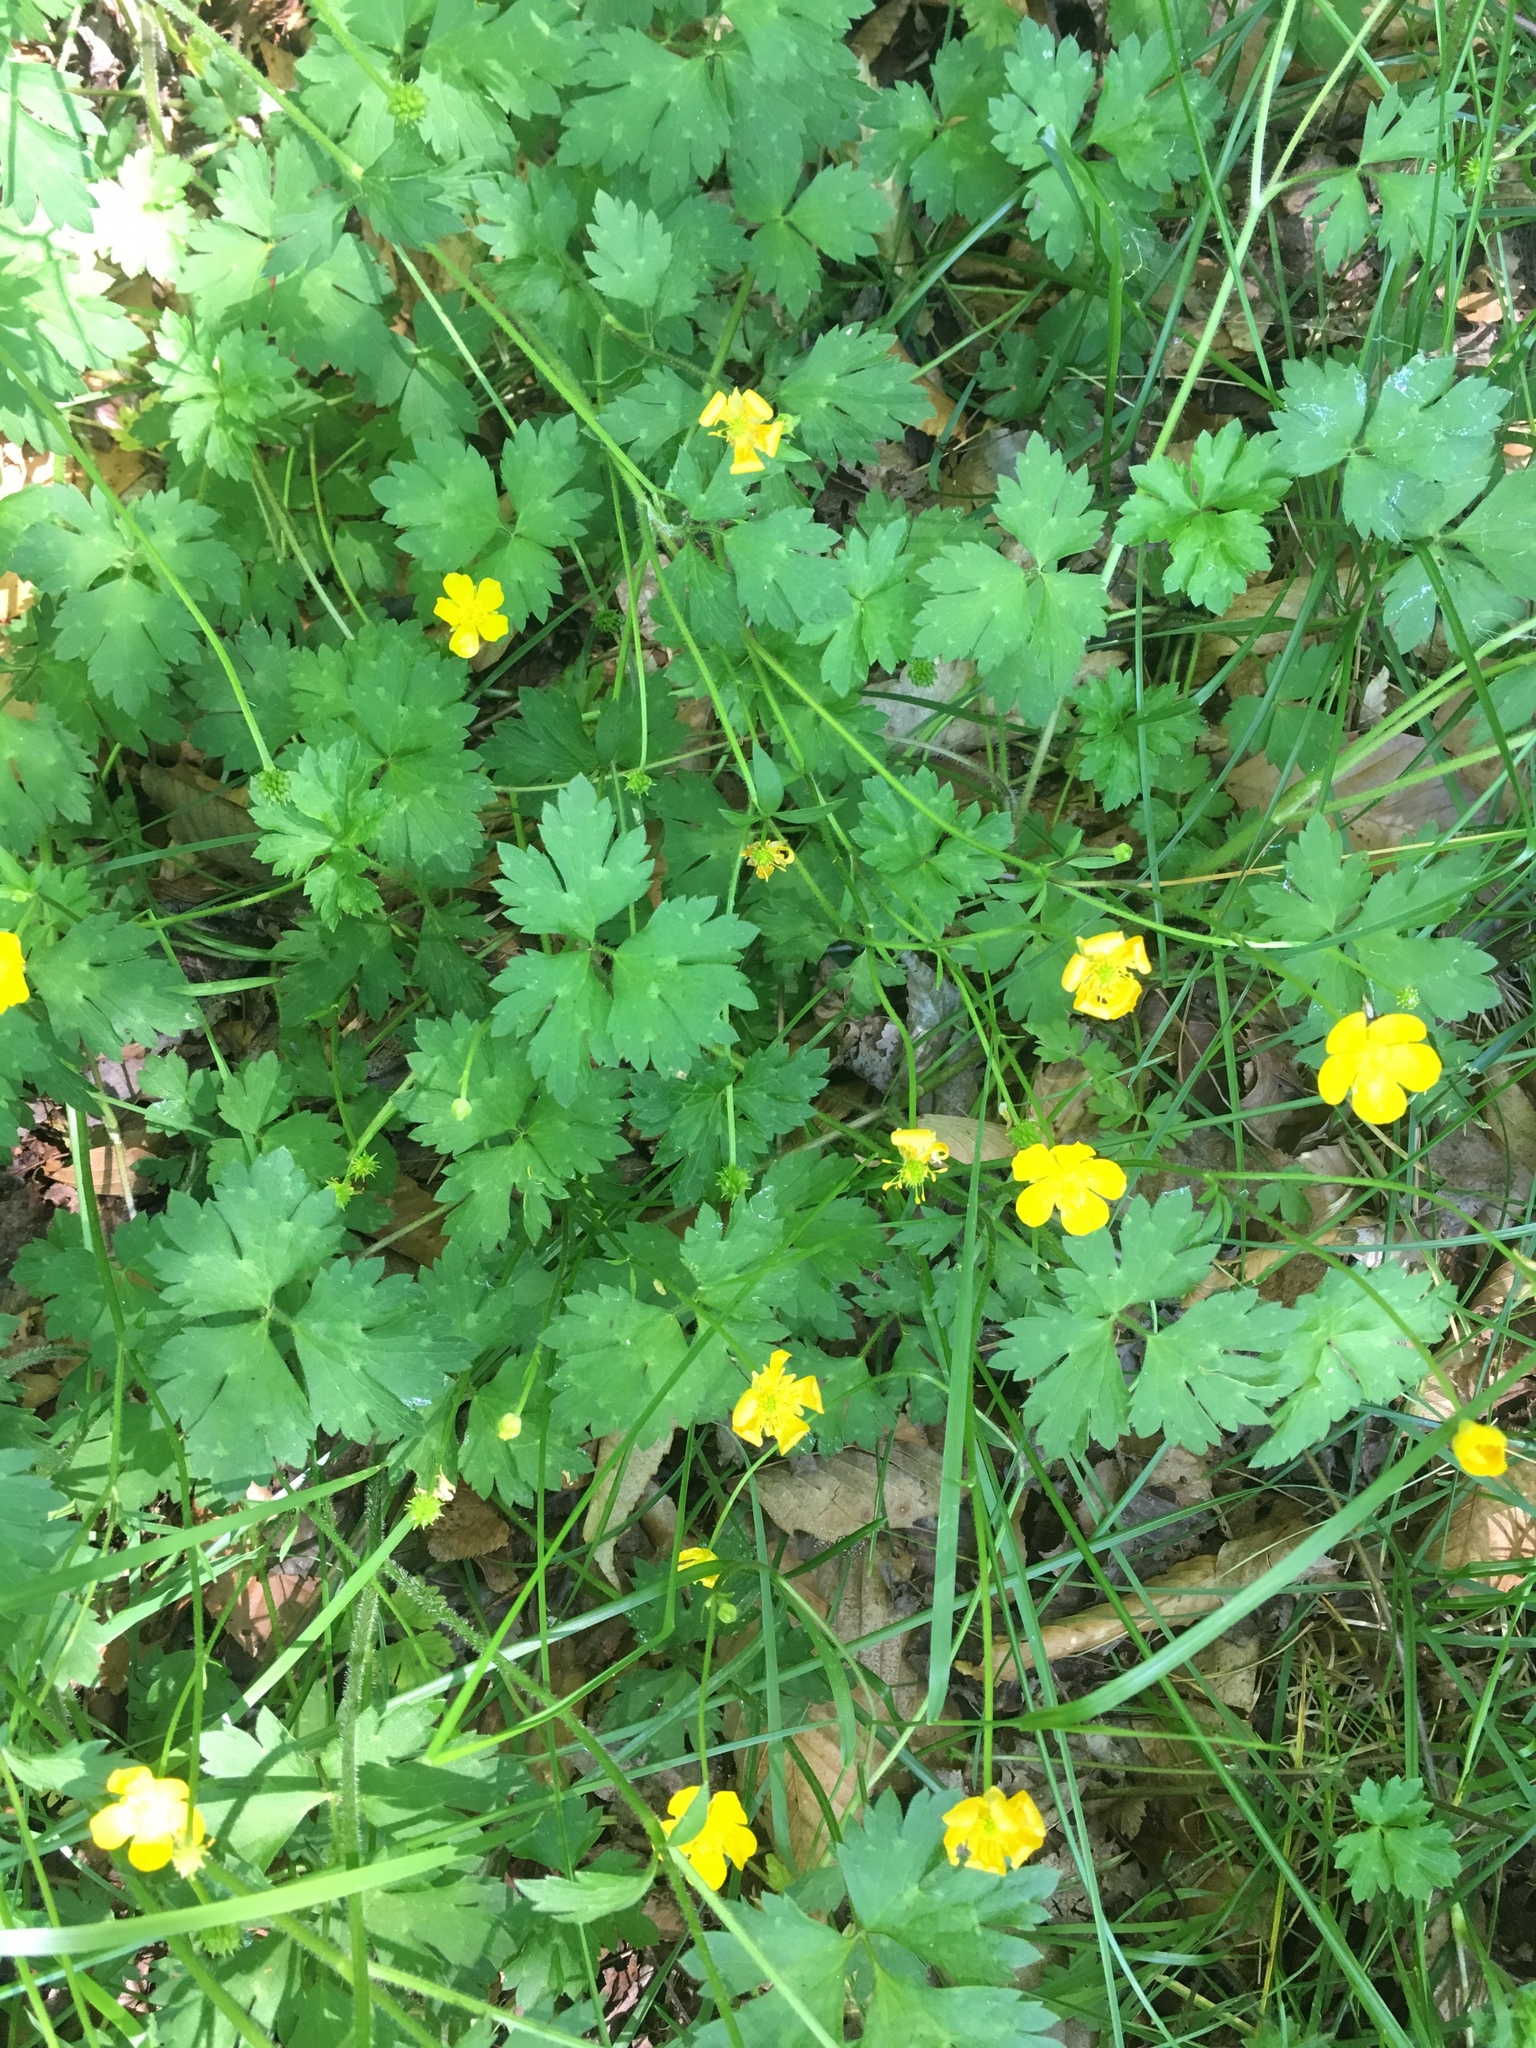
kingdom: Plantae
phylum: Tracheophyta
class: Magnoliopsida
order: Ranunculales
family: Ranunculaceae
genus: Ranunculus
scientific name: Ranunculus repens
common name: Creeping buttercup
